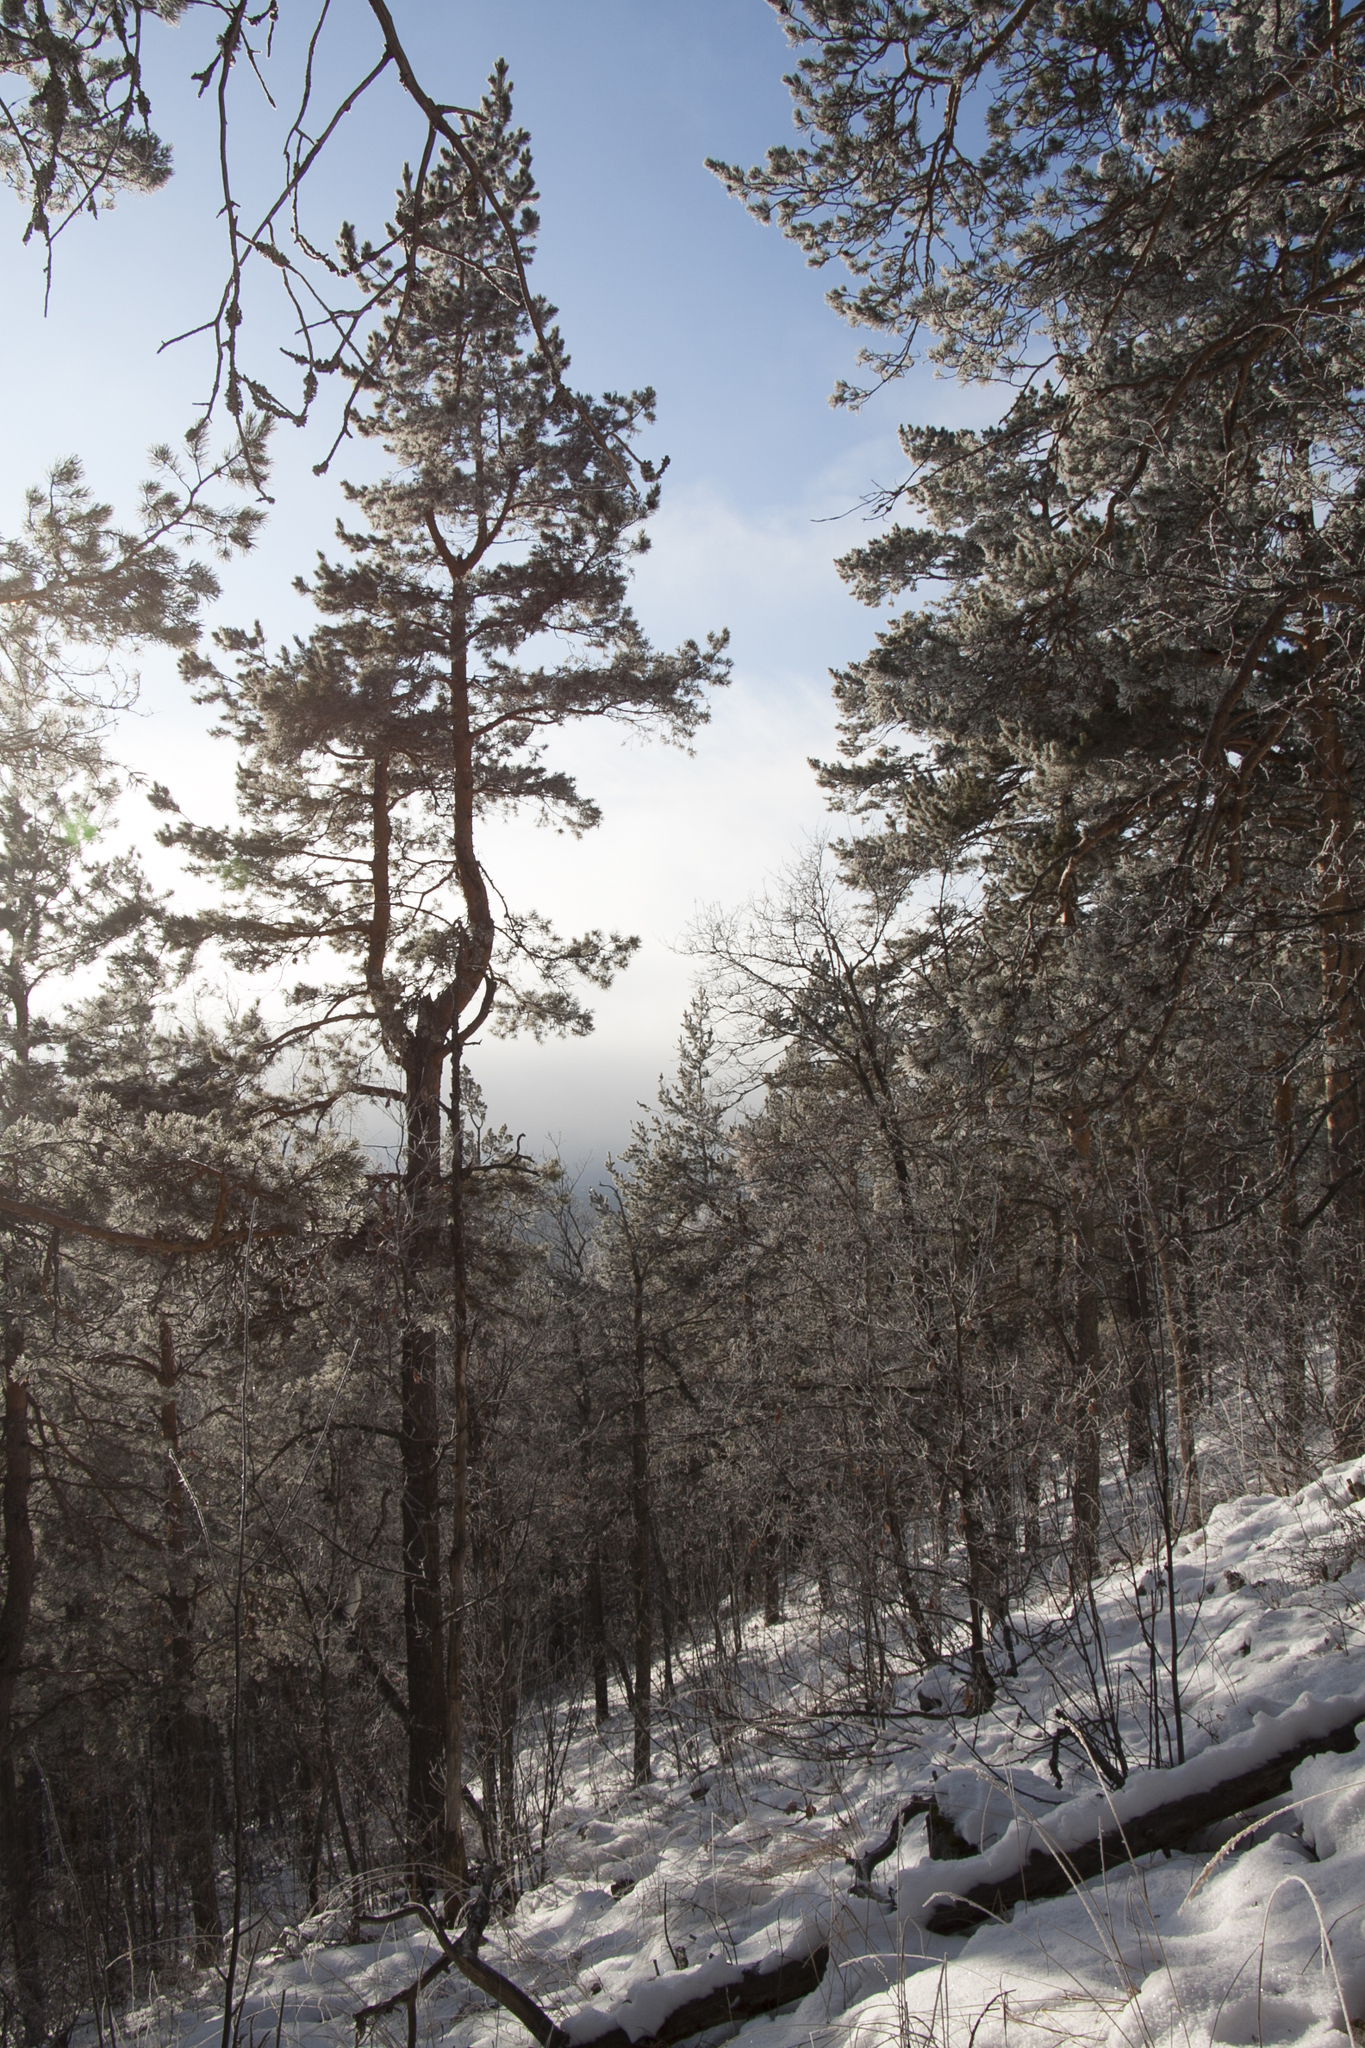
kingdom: Plantae
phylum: Tracheophyta
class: Pinopsida
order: Pinales
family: Pinaceae
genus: Pinus
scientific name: Pinus sylvestris
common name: Scots pine
